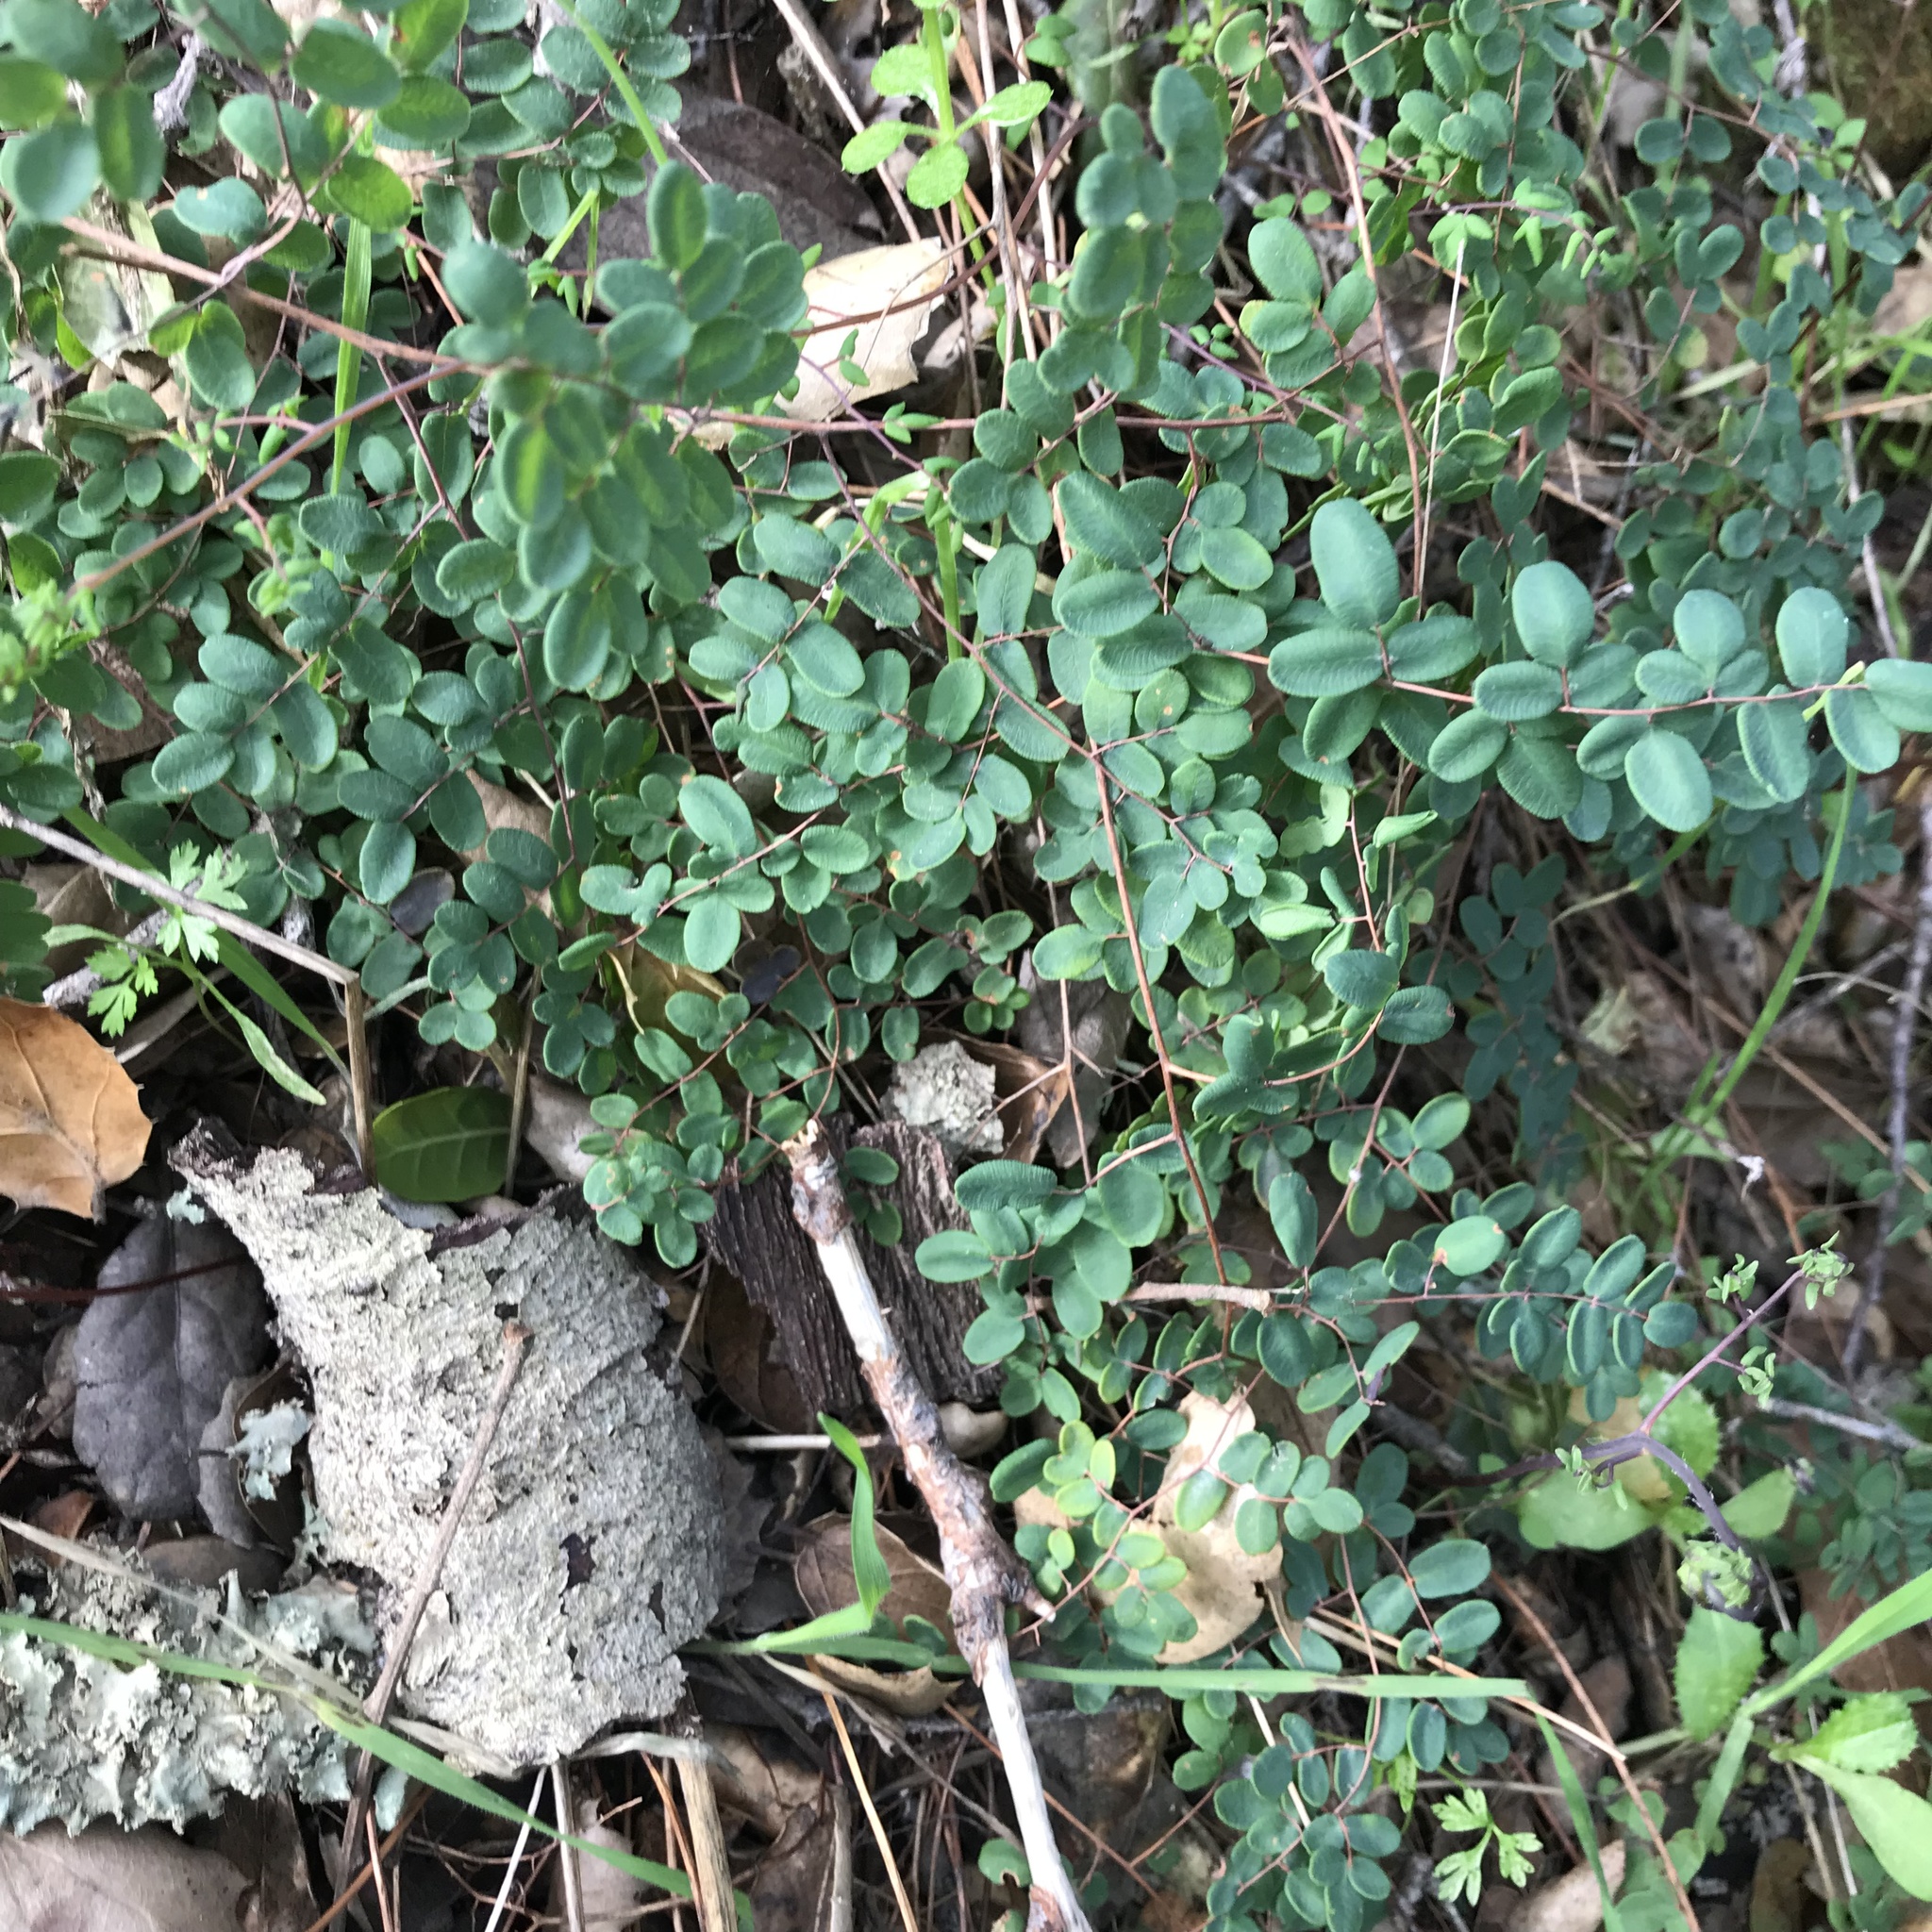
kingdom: Plantae
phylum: Tracheophyta
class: Polypodiopsida
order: Polypodiales
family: Pteridaceae
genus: Pellaea
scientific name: Pellaea andromedifolia
